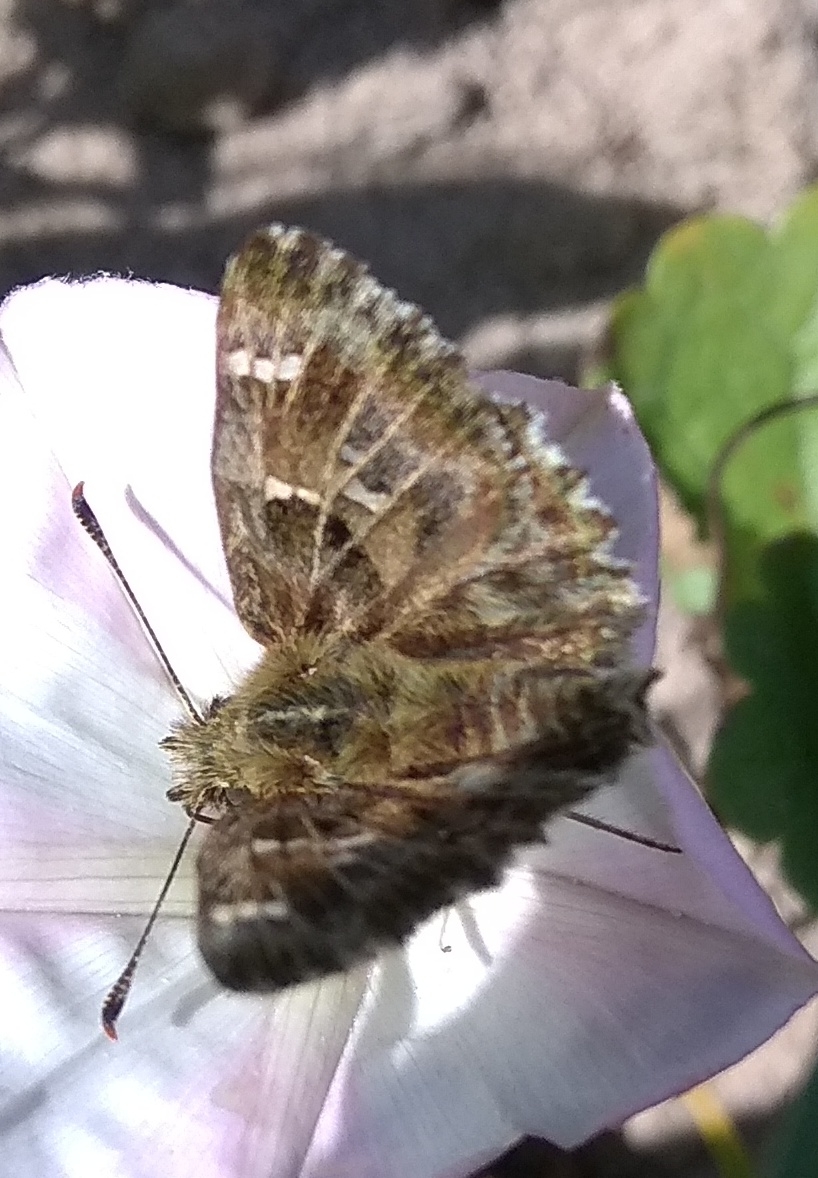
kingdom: Animalia
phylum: Arthropoda
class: Insecta
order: Lepidoptera
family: Hesperiidae
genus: Carcharodus
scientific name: Carcharodus alceae
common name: Mallow skipper
